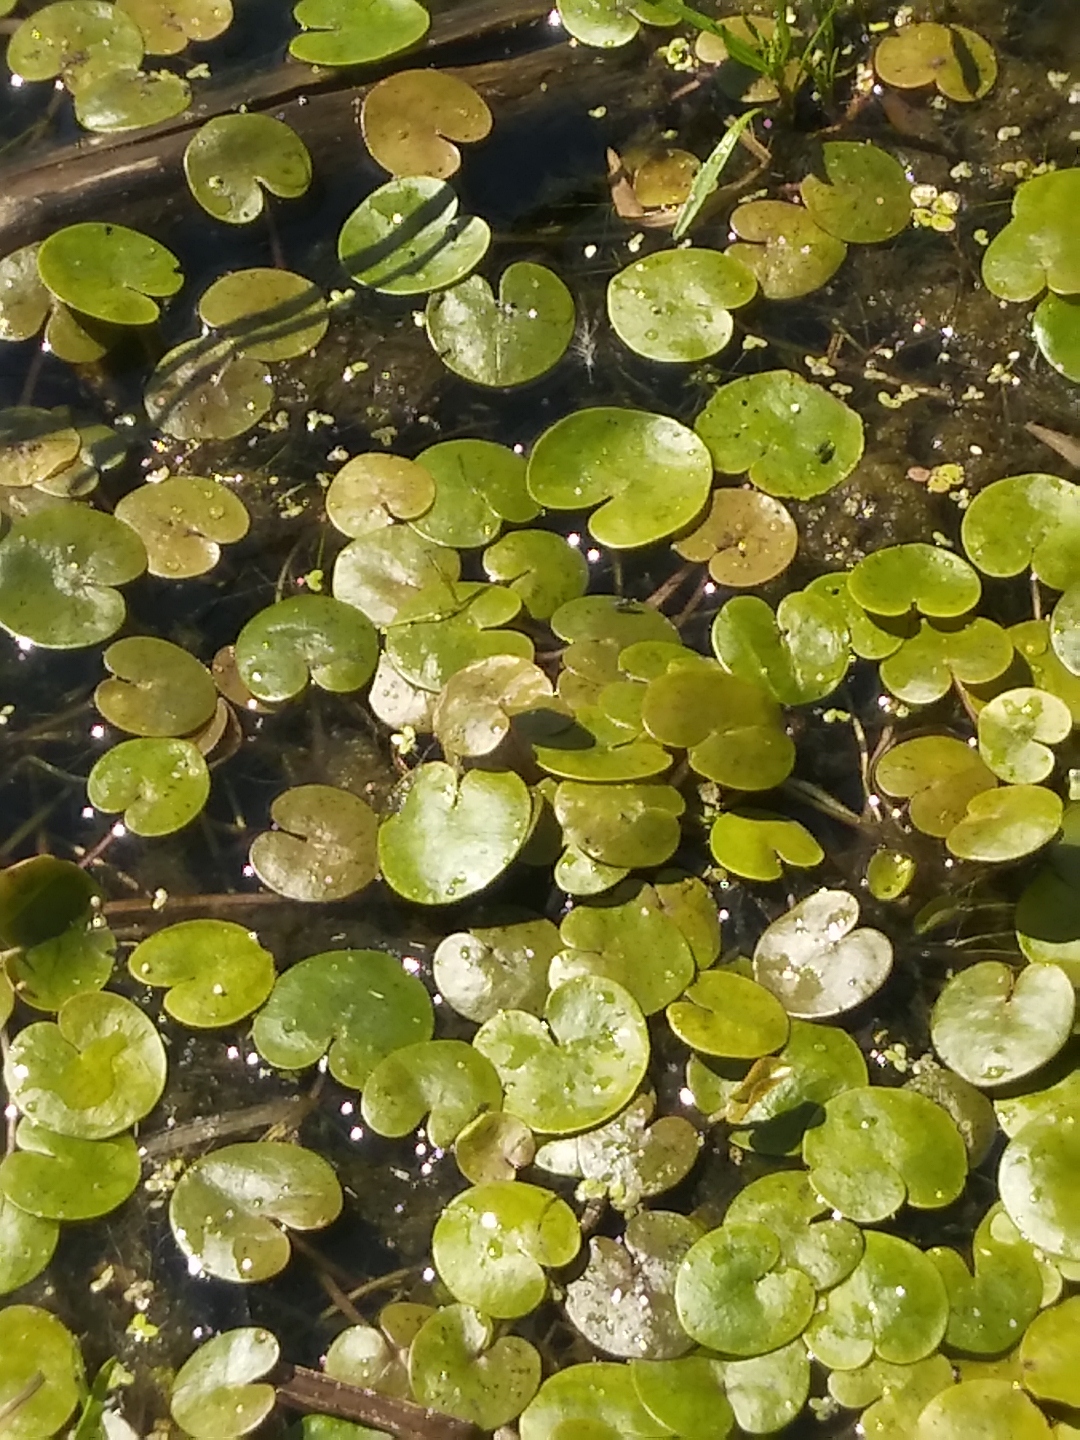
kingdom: Plantae
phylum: Tracheophyta
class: Liliopsida
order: Alismatales
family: Hydrocharitaceae
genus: Hydrocharis
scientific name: Hydrocharis morsus-ranae
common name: Frogbit
